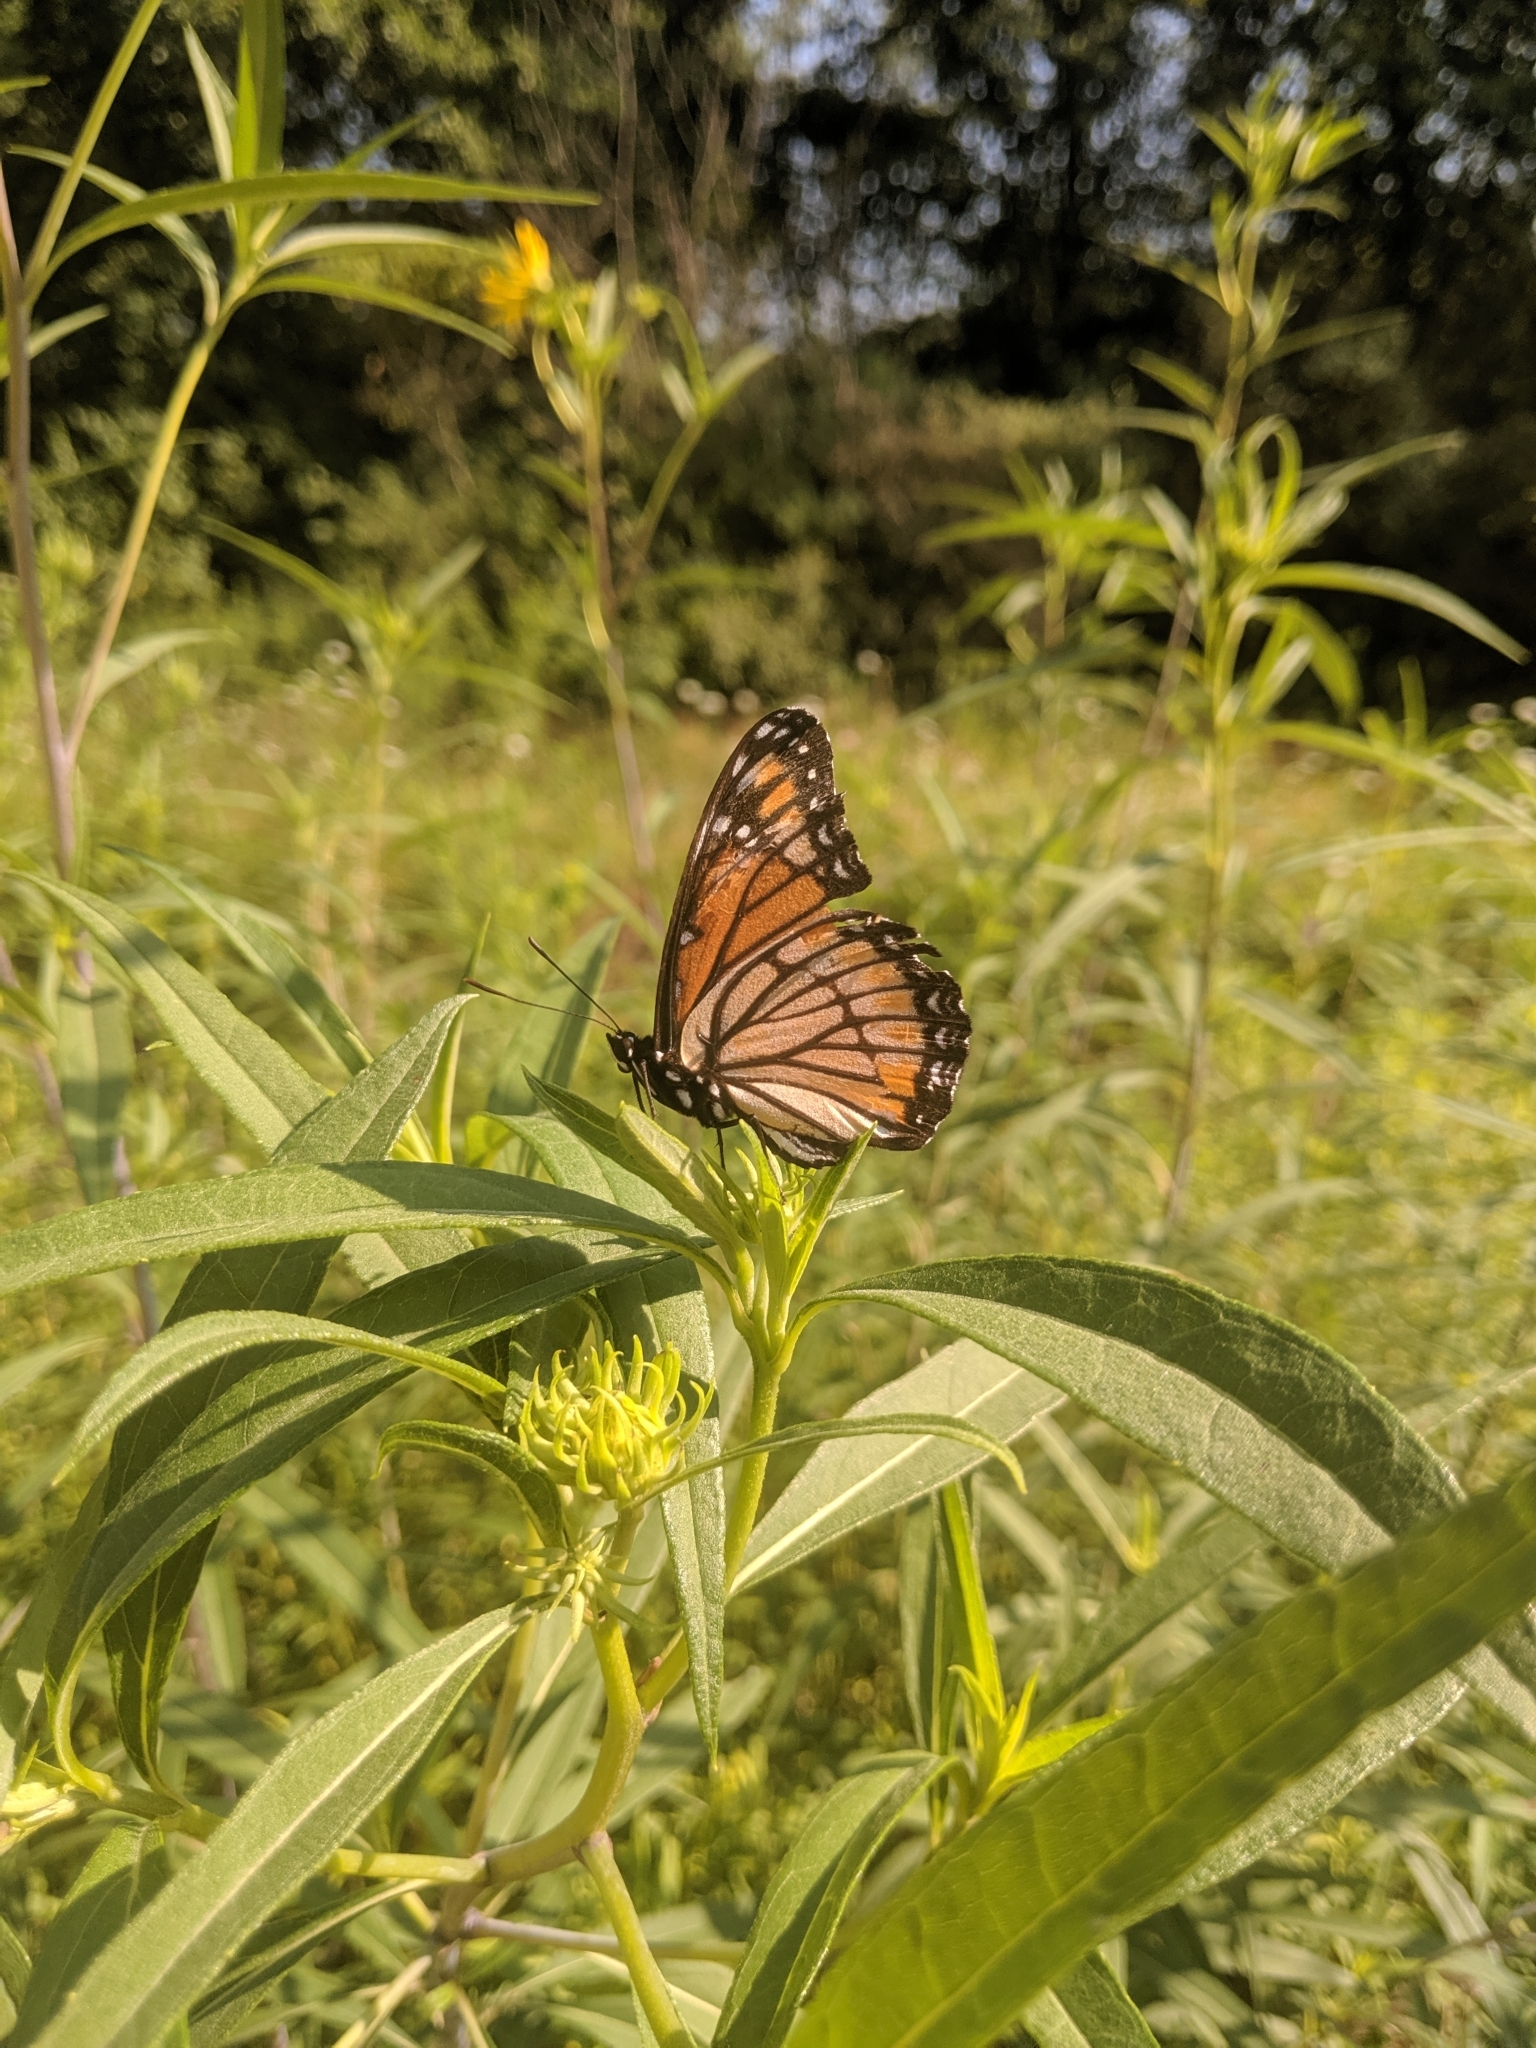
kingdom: Animalia
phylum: Arthropoda
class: Insecta
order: Lepidoptera
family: Nymphalidae
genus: Limenitis
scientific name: Limenitis archippus
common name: Viceroy
